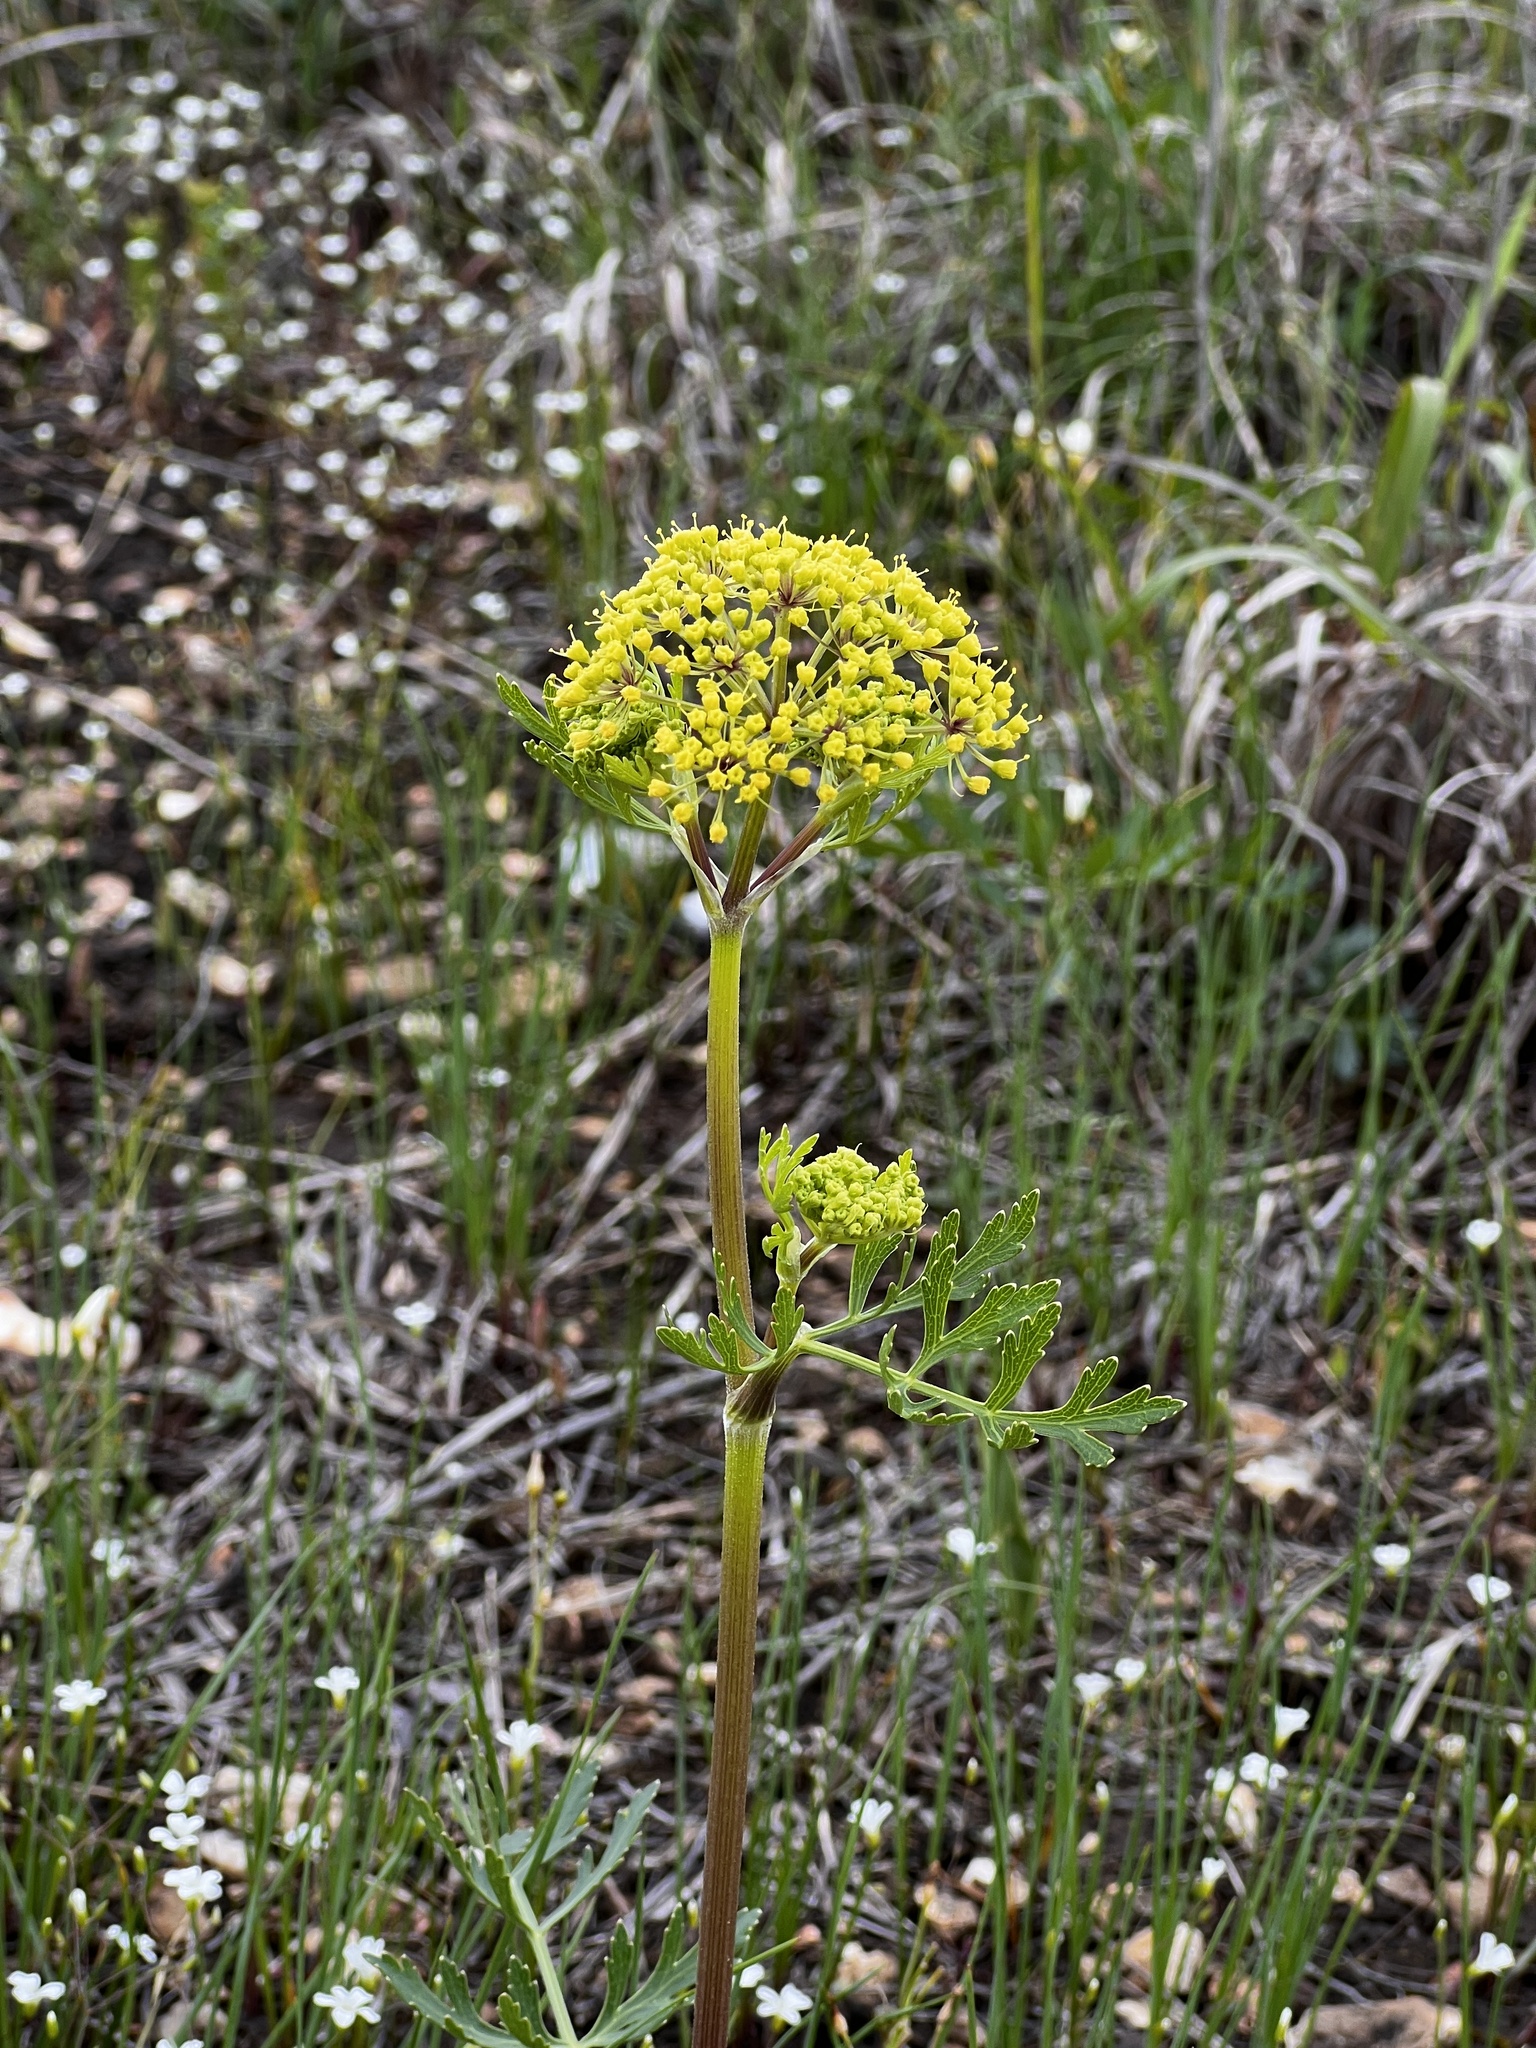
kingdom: Plantae
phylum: Tracheophyta
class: Magnoliopsida
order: Apiales
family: Apiaceae
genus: Polytaenia
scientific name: Polytaenia nuttallii
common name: Prairie-parsley
